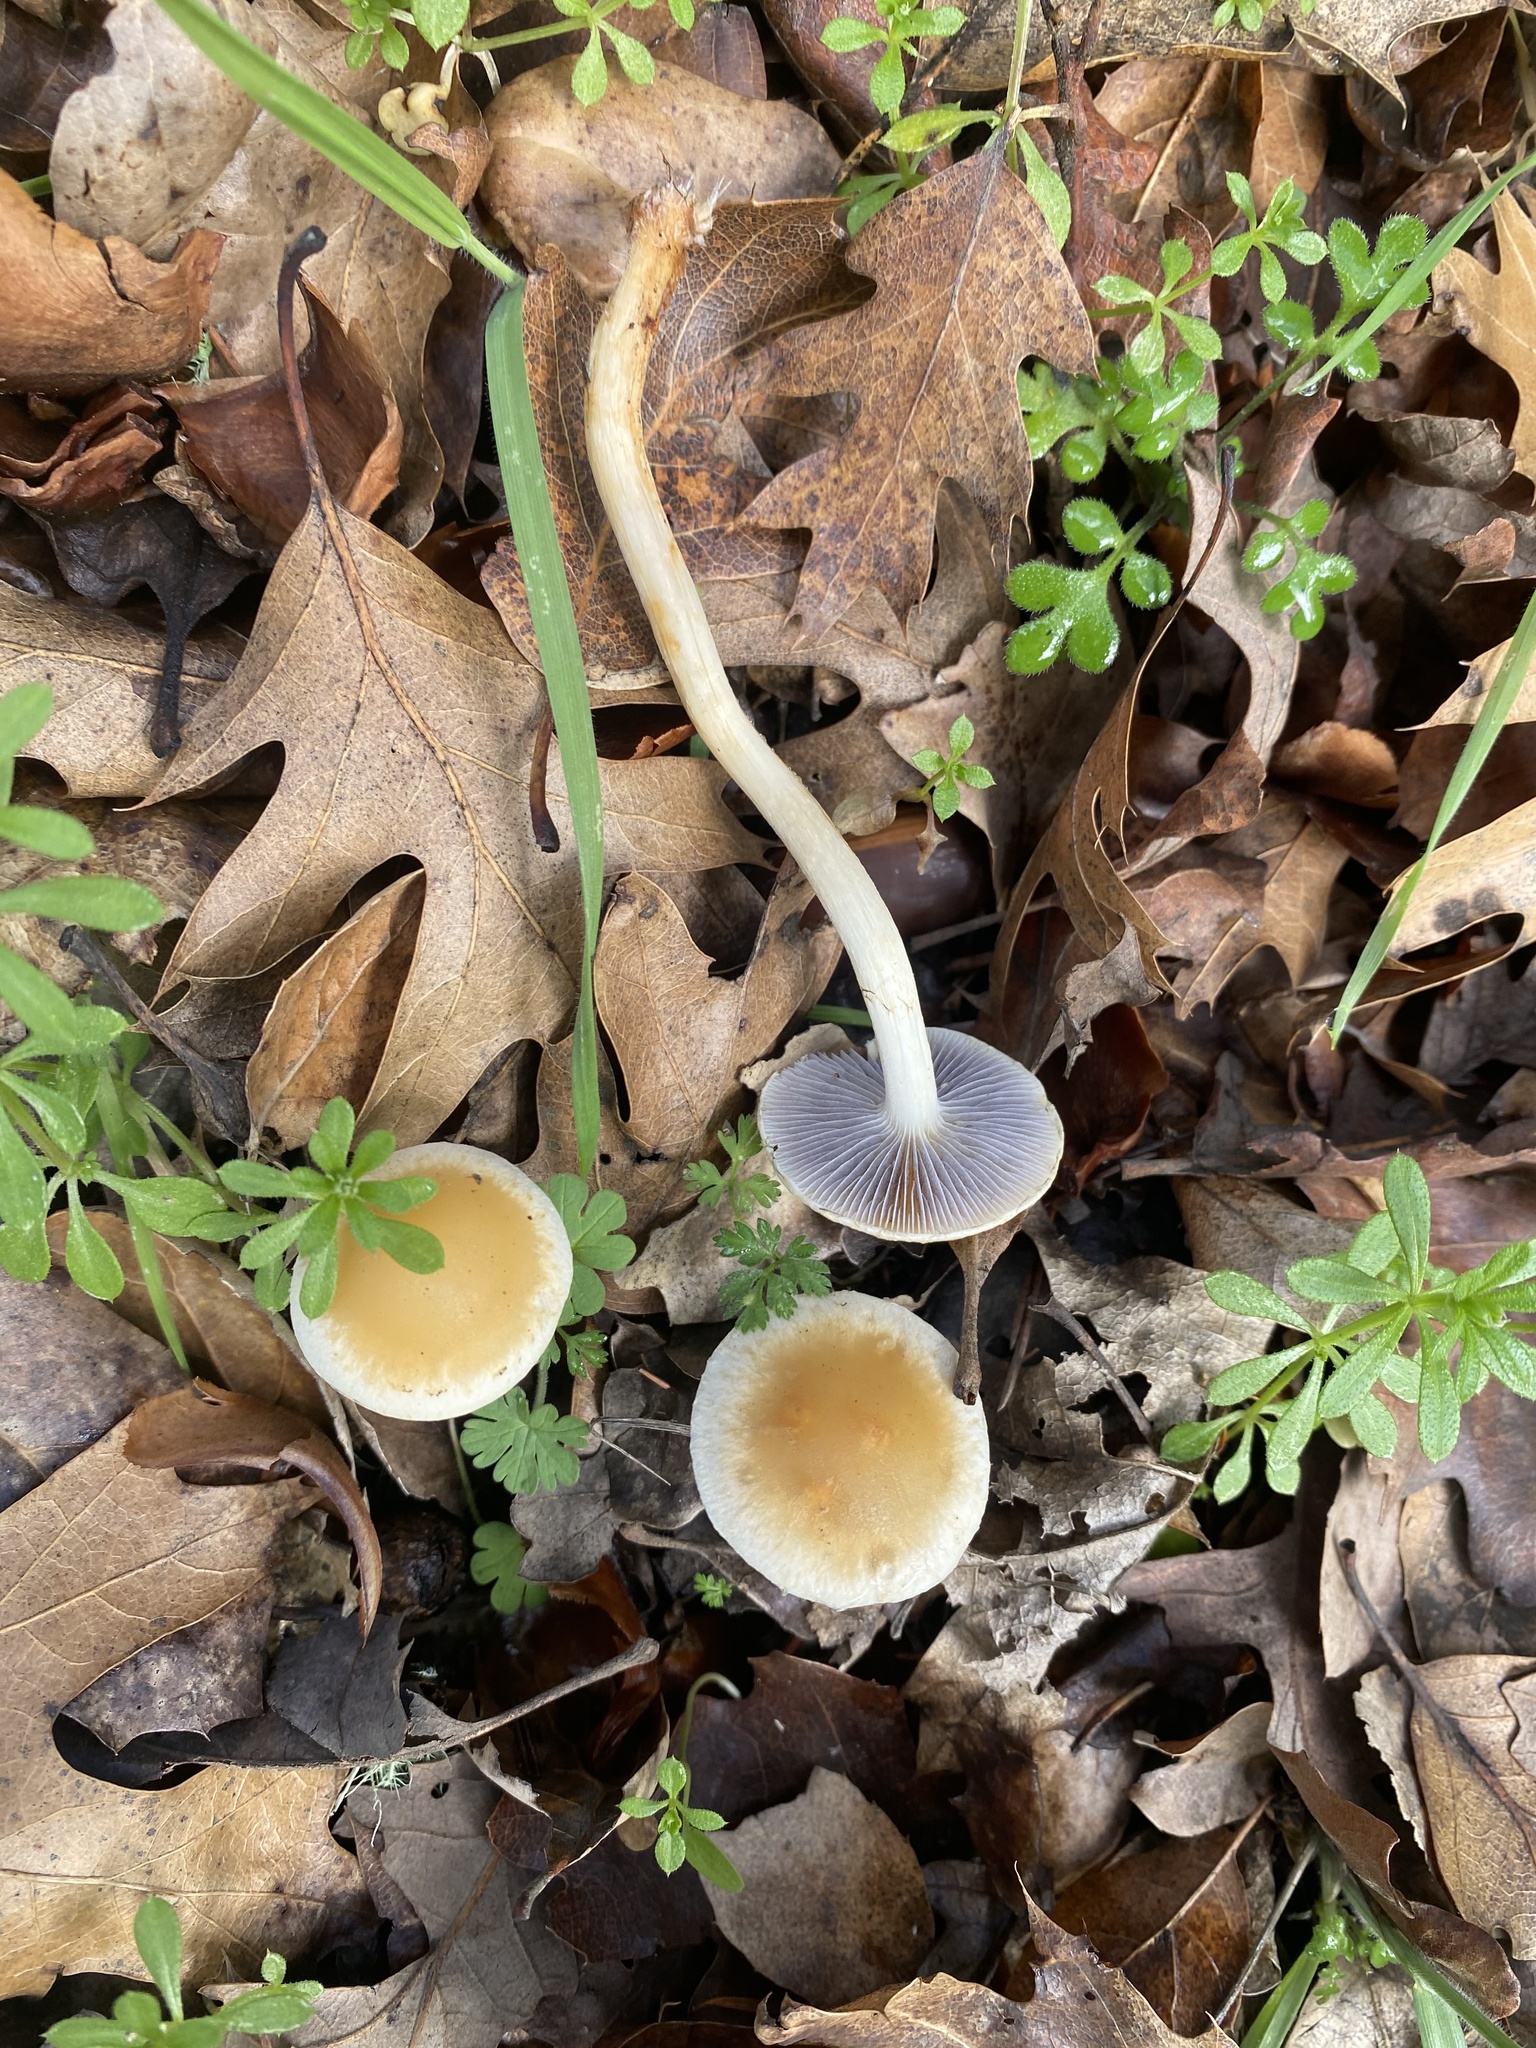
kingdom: Fungi
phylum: Basidiomycota
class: Agaricomycetes
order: Agaricales
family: Strophariaceae
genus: Leratiomyces
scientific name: Leratiomyces percevalii
